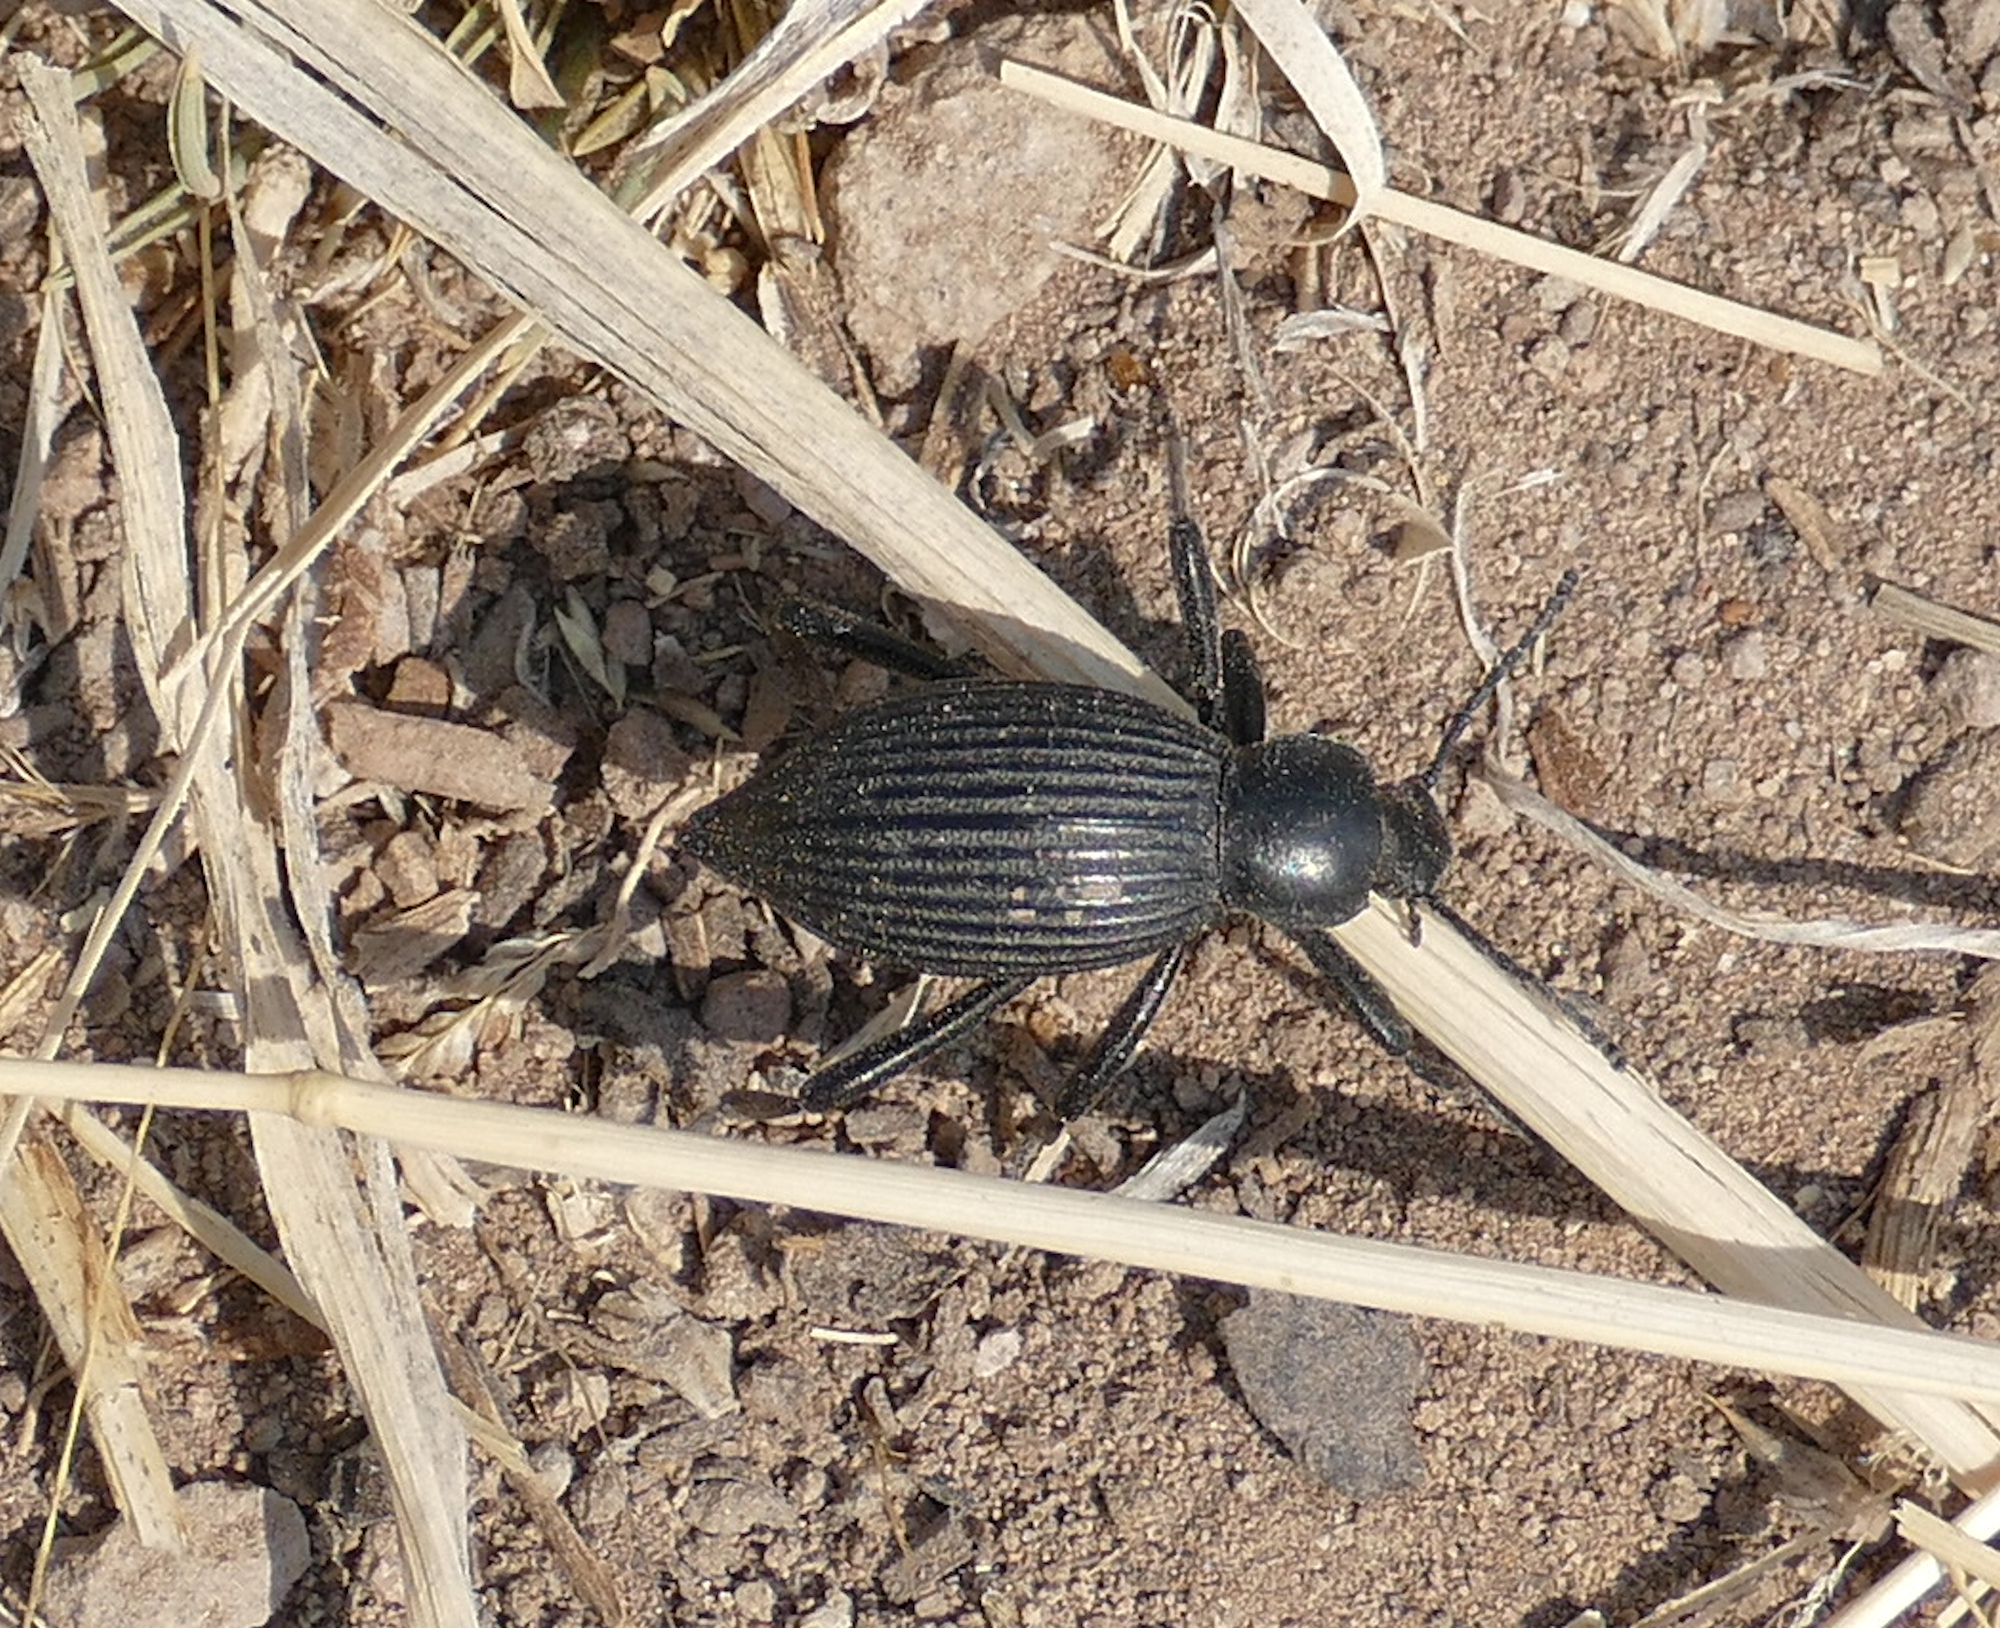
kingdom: Animalia
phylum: Arthropoda
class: Insecta
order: Coleoptera
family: Tenebrionidae
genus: Eleodes
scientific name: Eleodes hispilabris
